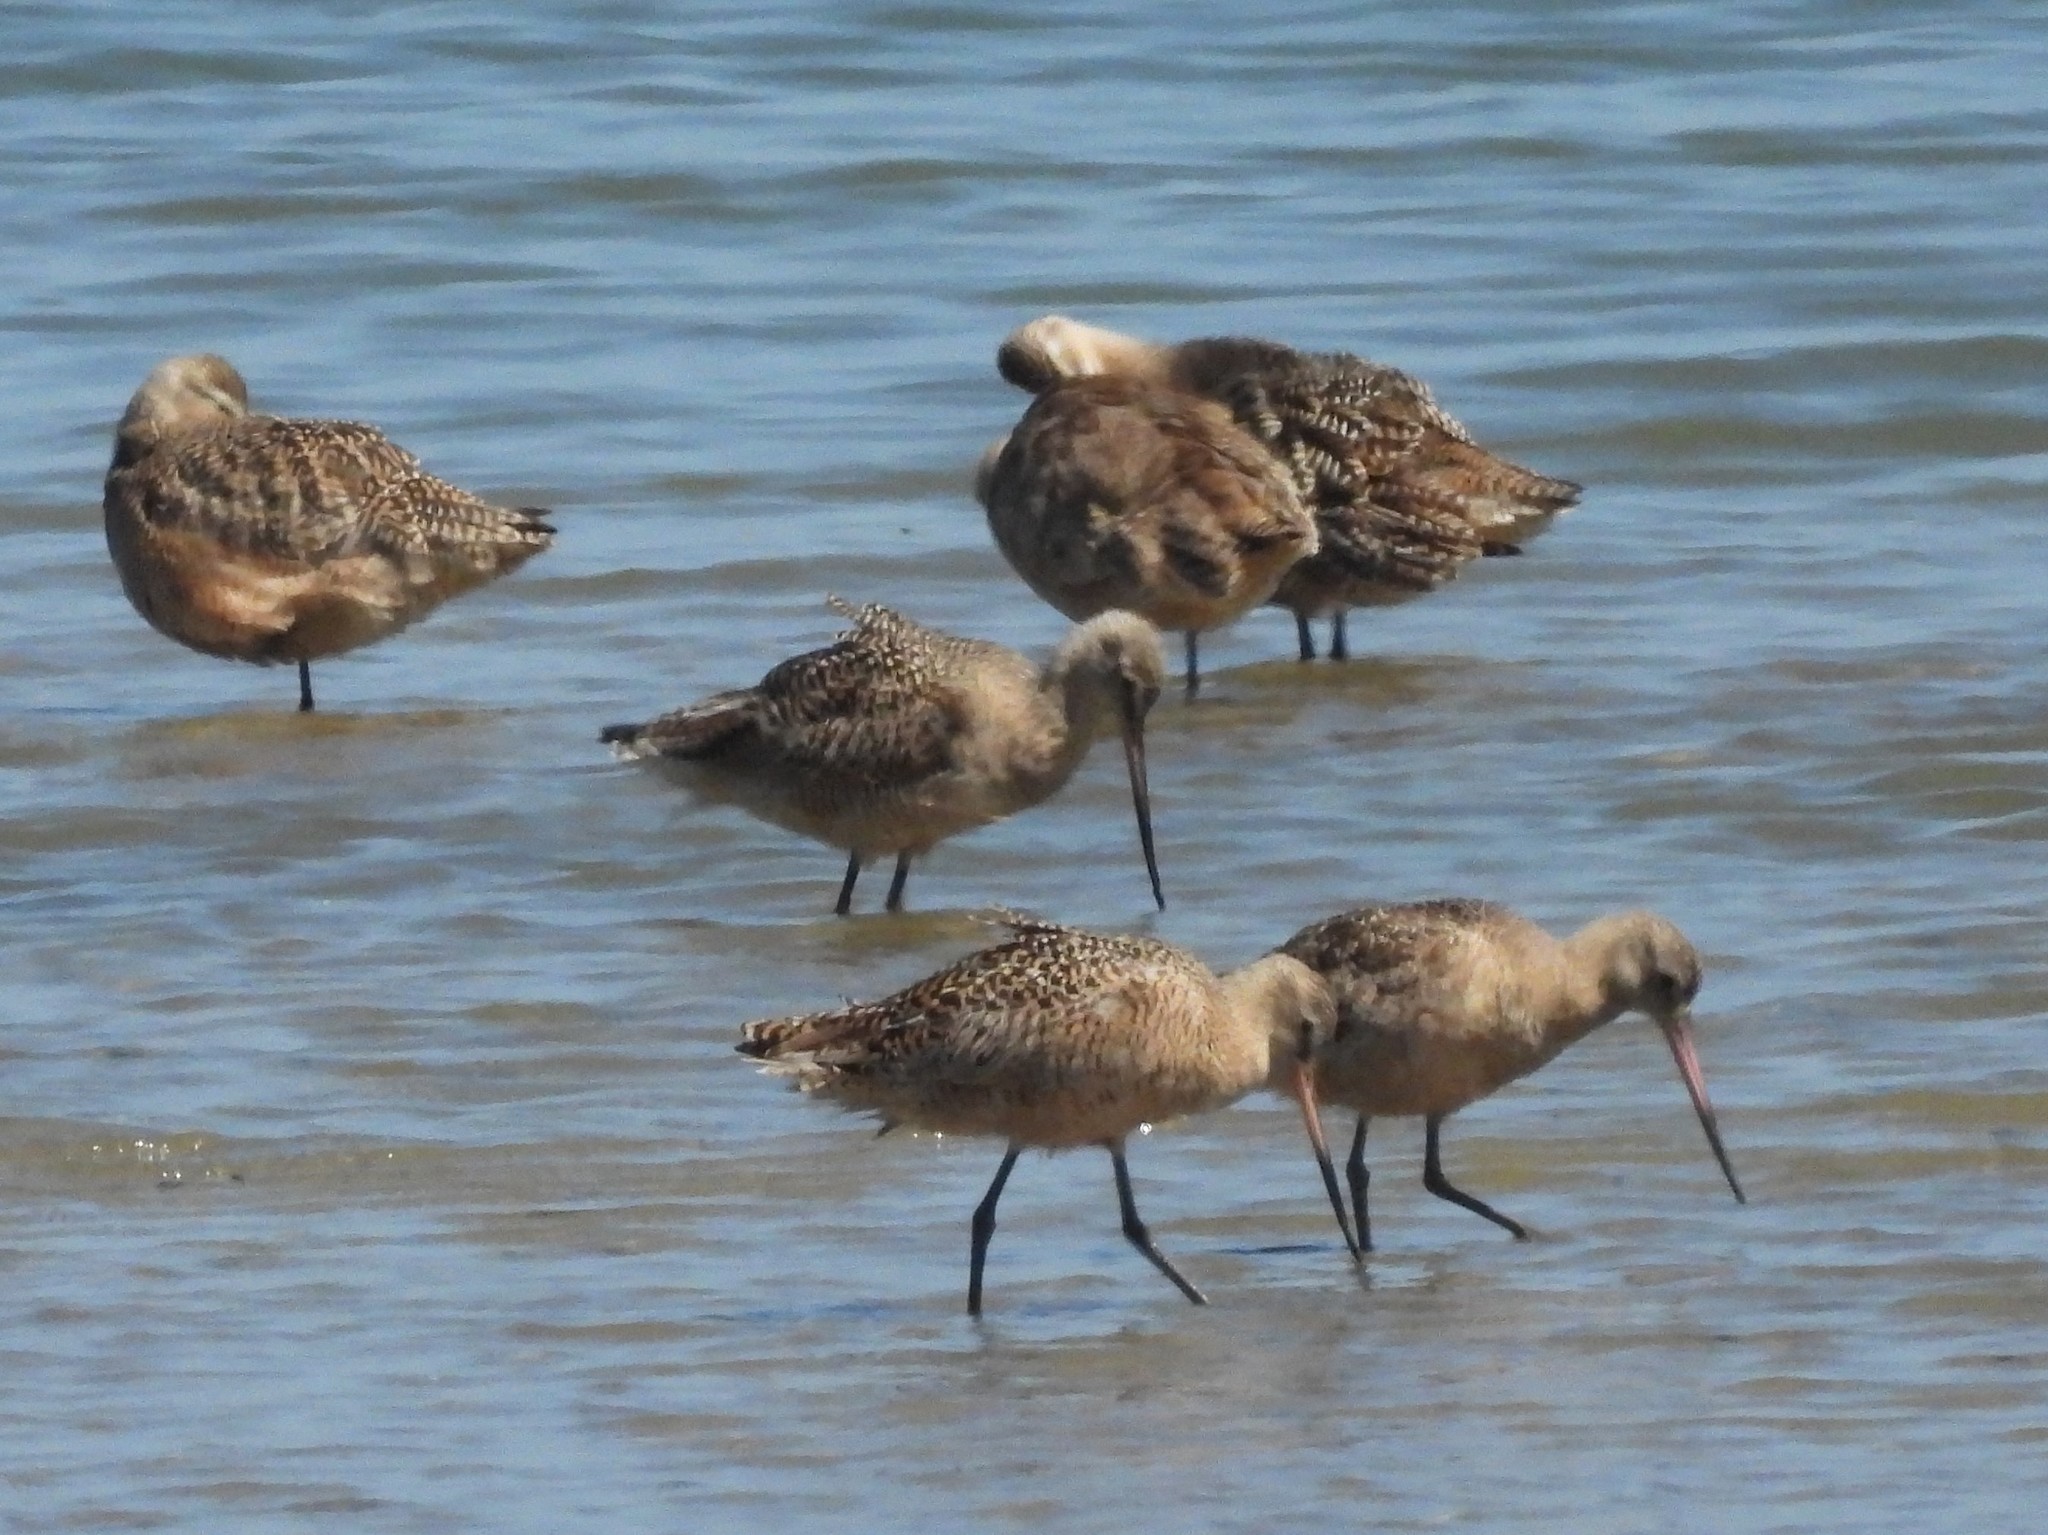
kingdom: Animalia
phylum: Chordata
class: Aves
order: Charadriiformes
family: Scolopacidae
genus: Limosa
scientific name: Limosa fedoa
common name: Marbled godwit
